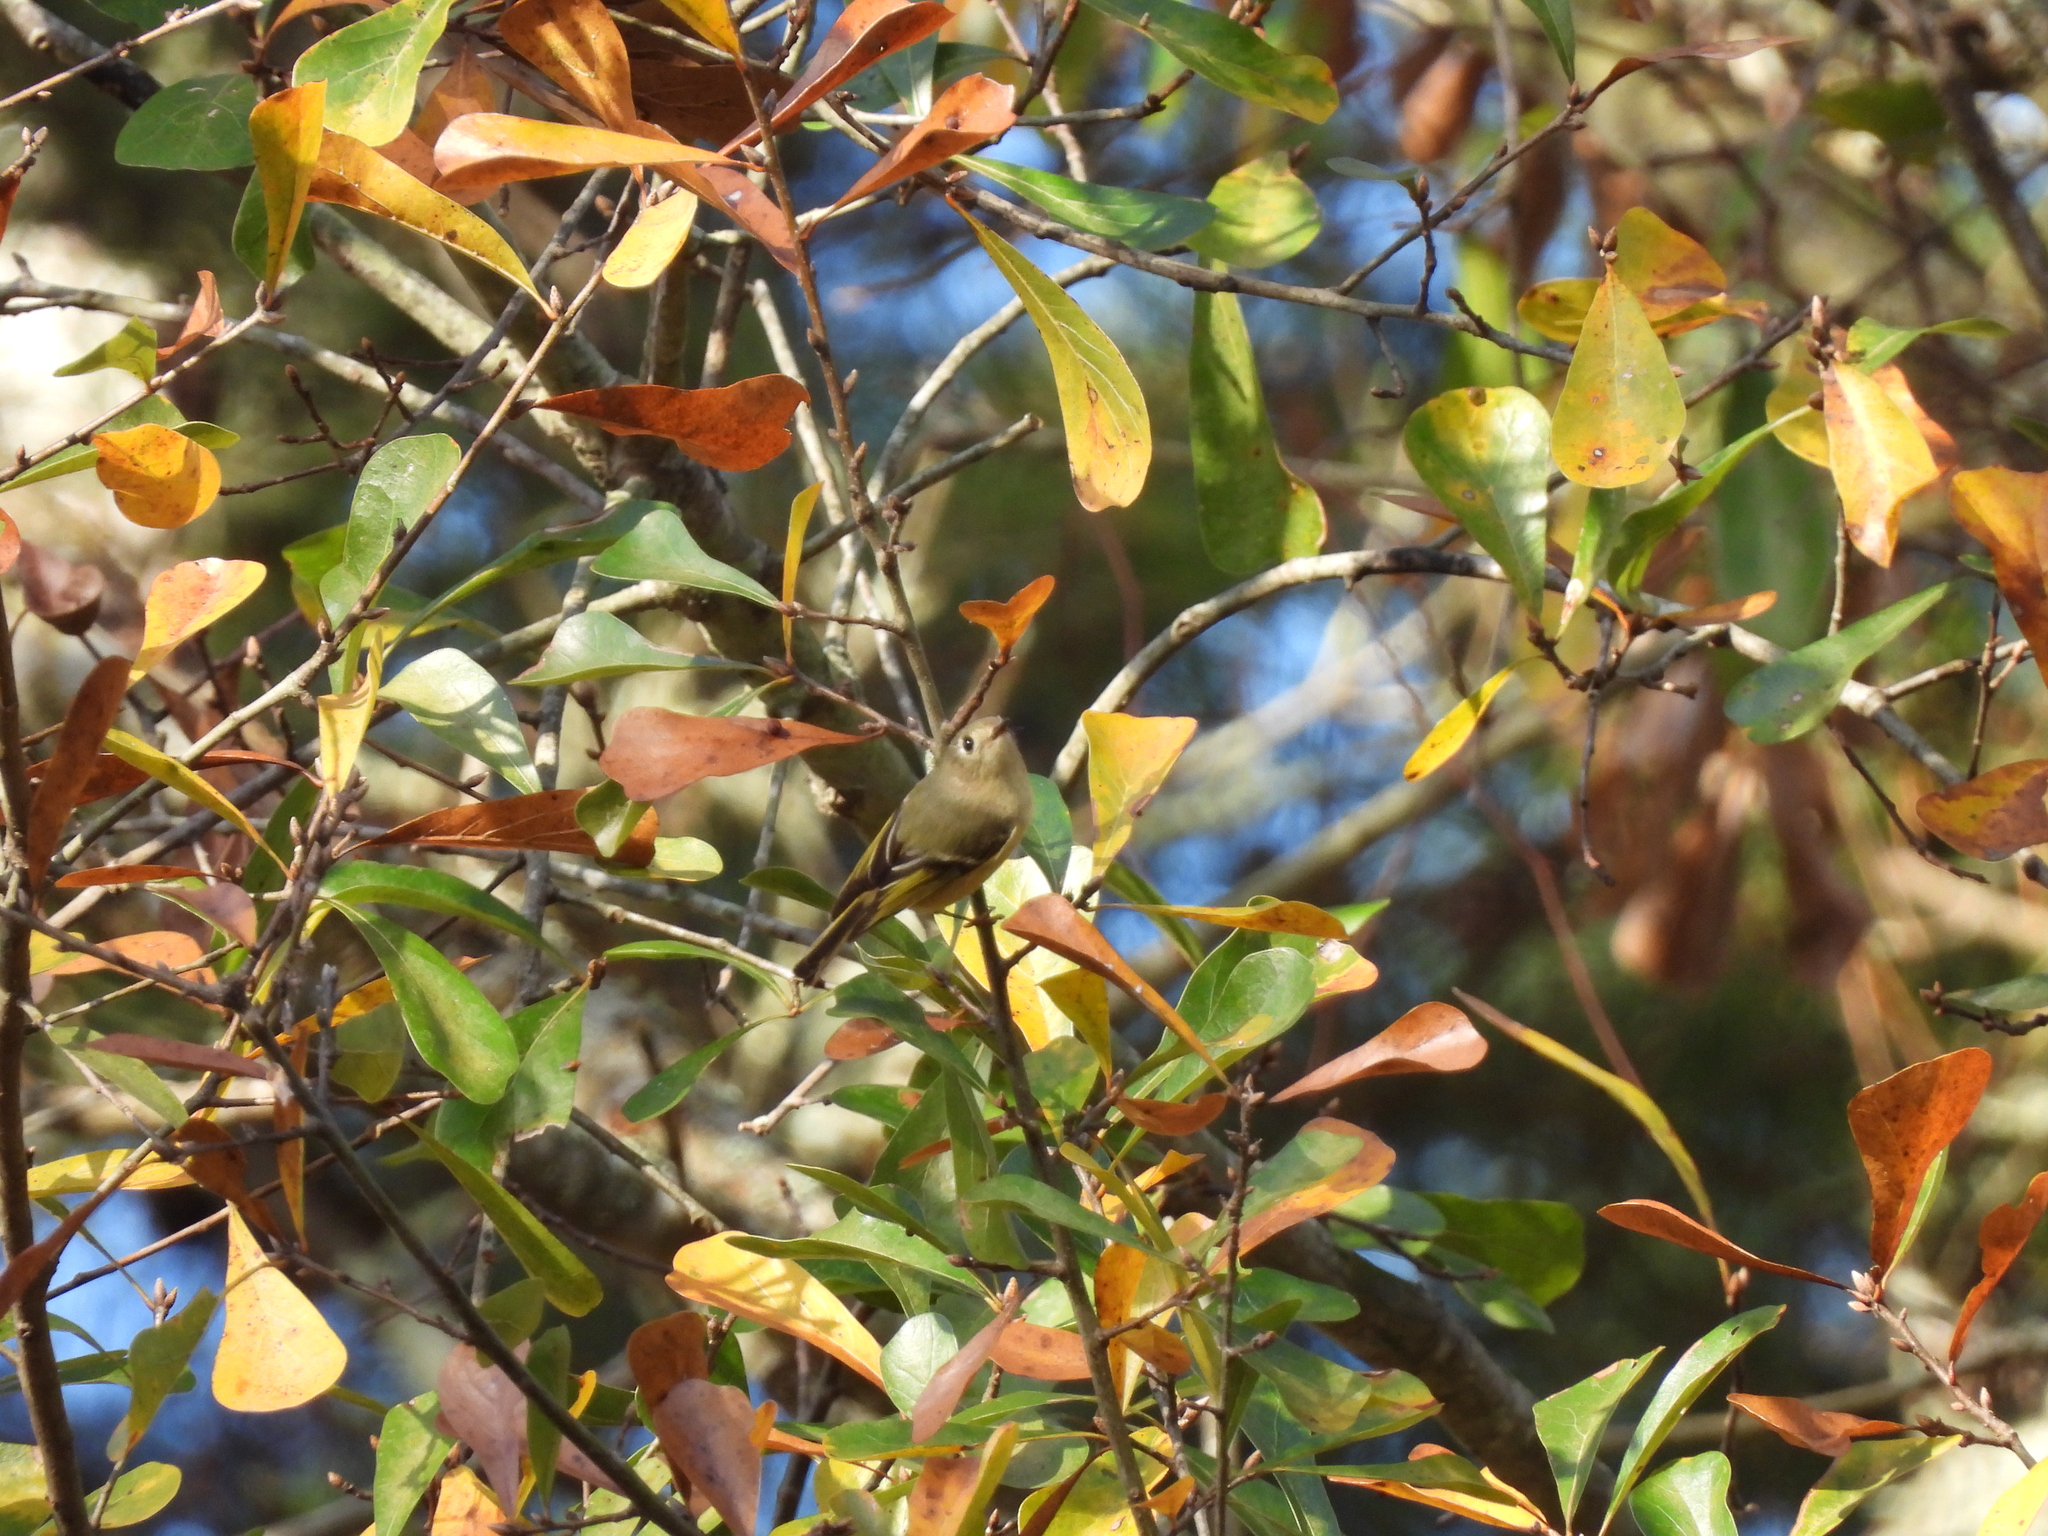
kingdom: Animalia
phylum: Chordata
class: Aves
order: Passeriformes
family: Regulidae
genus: Regulus
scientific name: Regulus calendula
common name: Ruby-crowned kinglet
